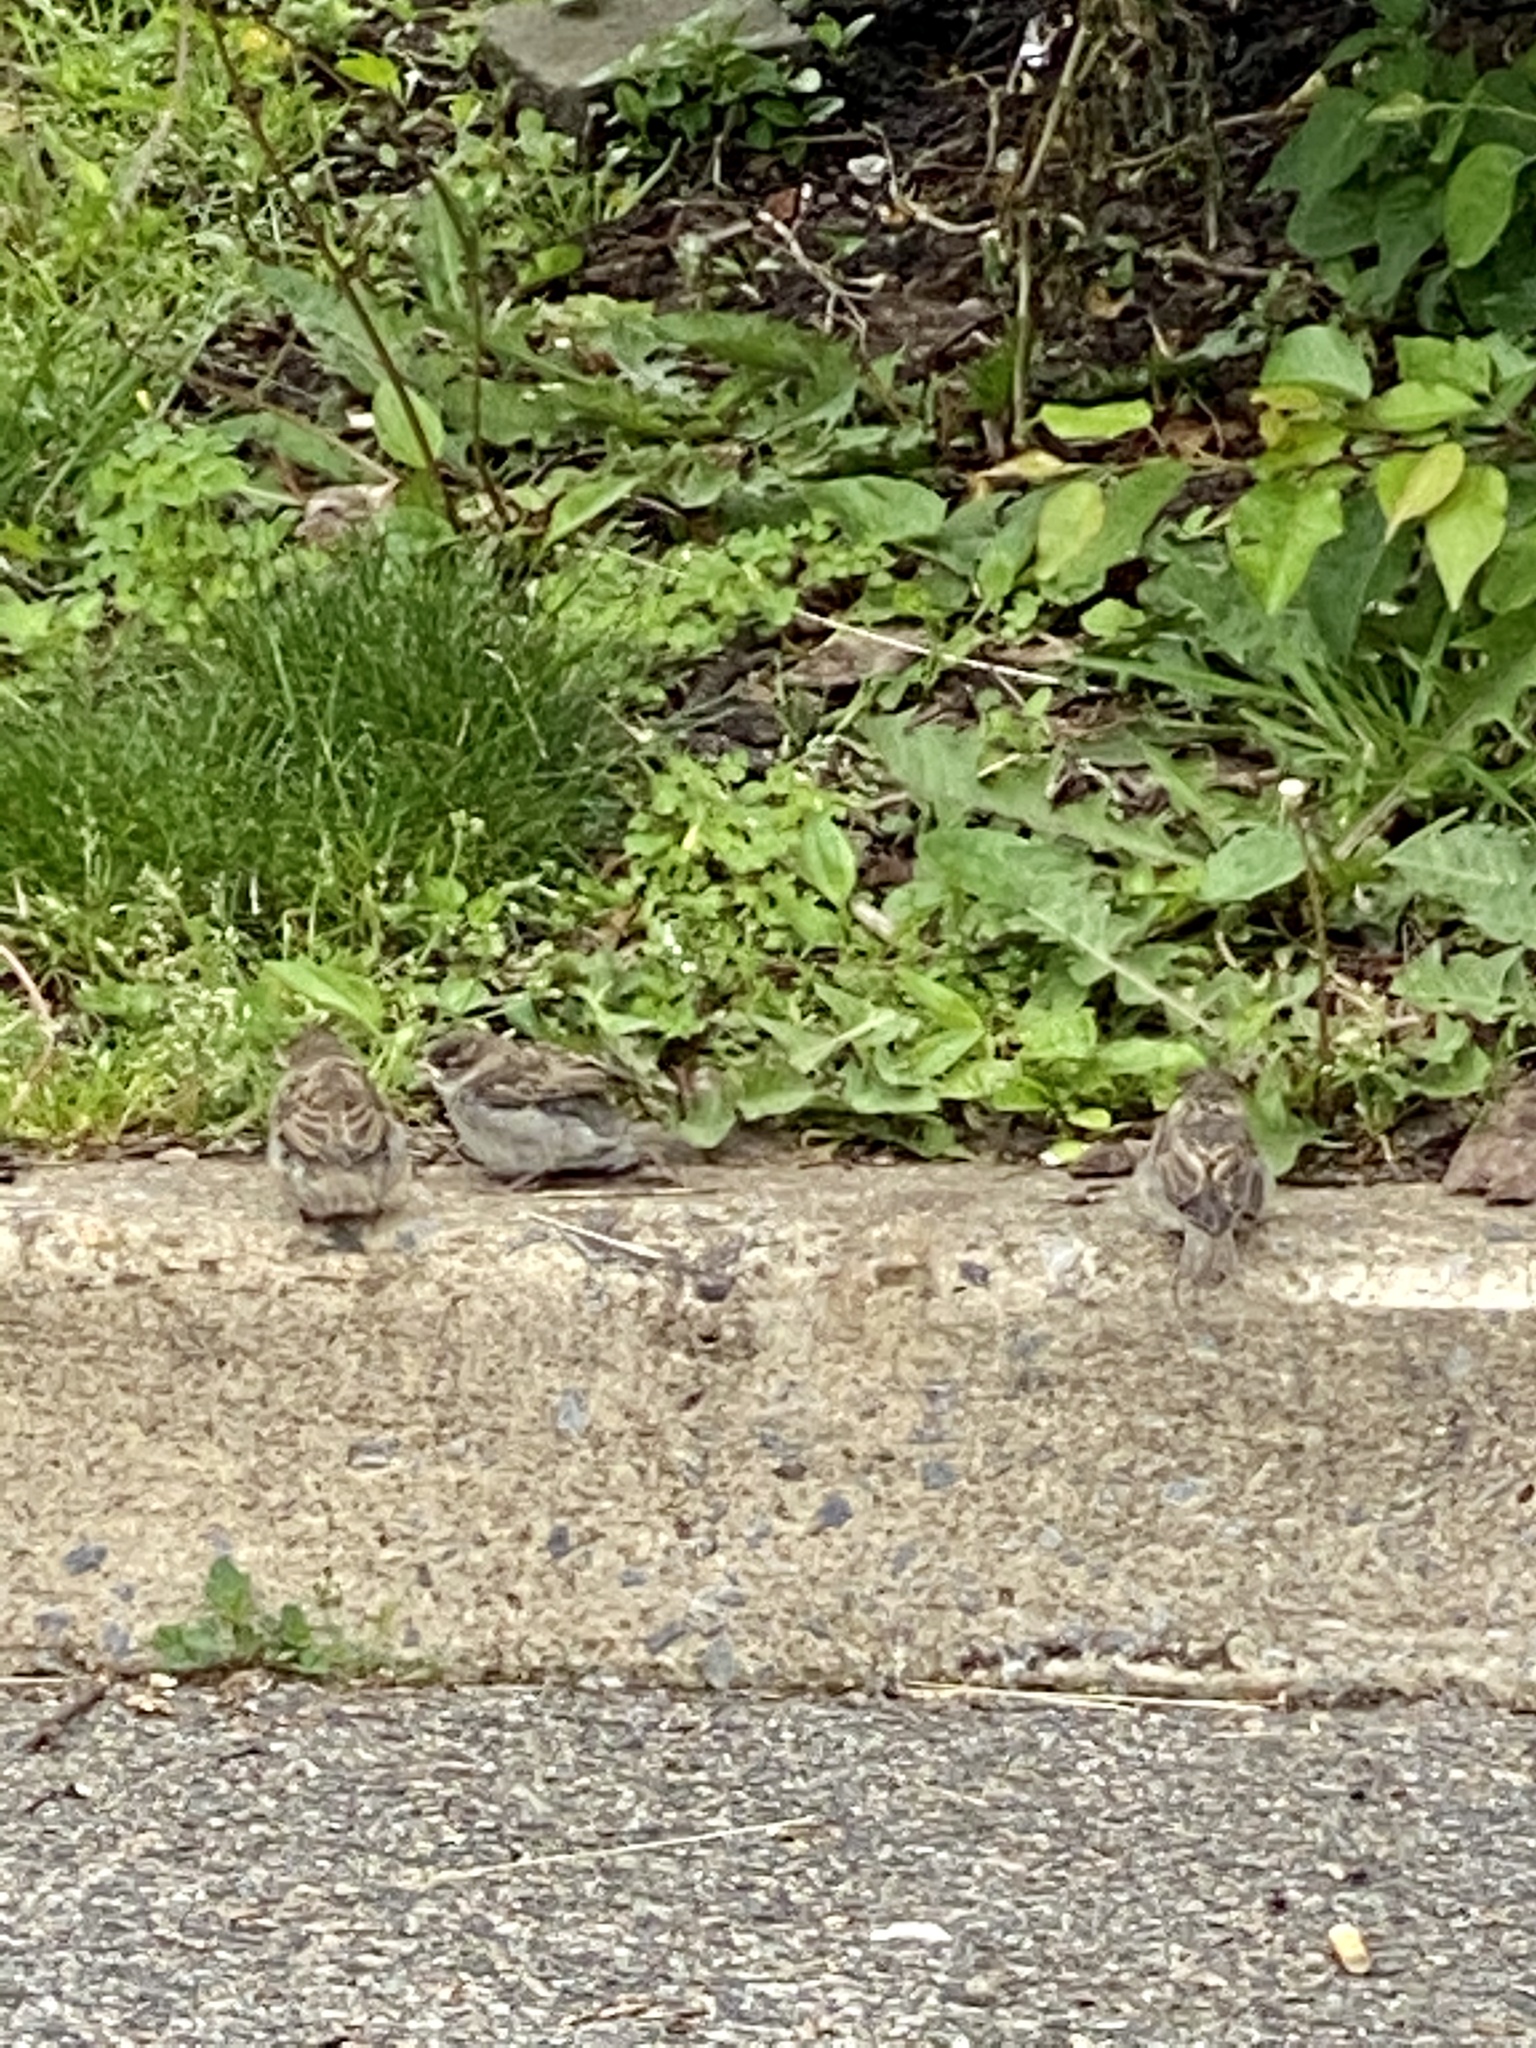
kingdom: Animalia
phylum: Chordata
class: Aves
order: Passeriformes
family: Passeridae
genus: Passer
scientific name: Passer domesticus
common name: House sparrow
